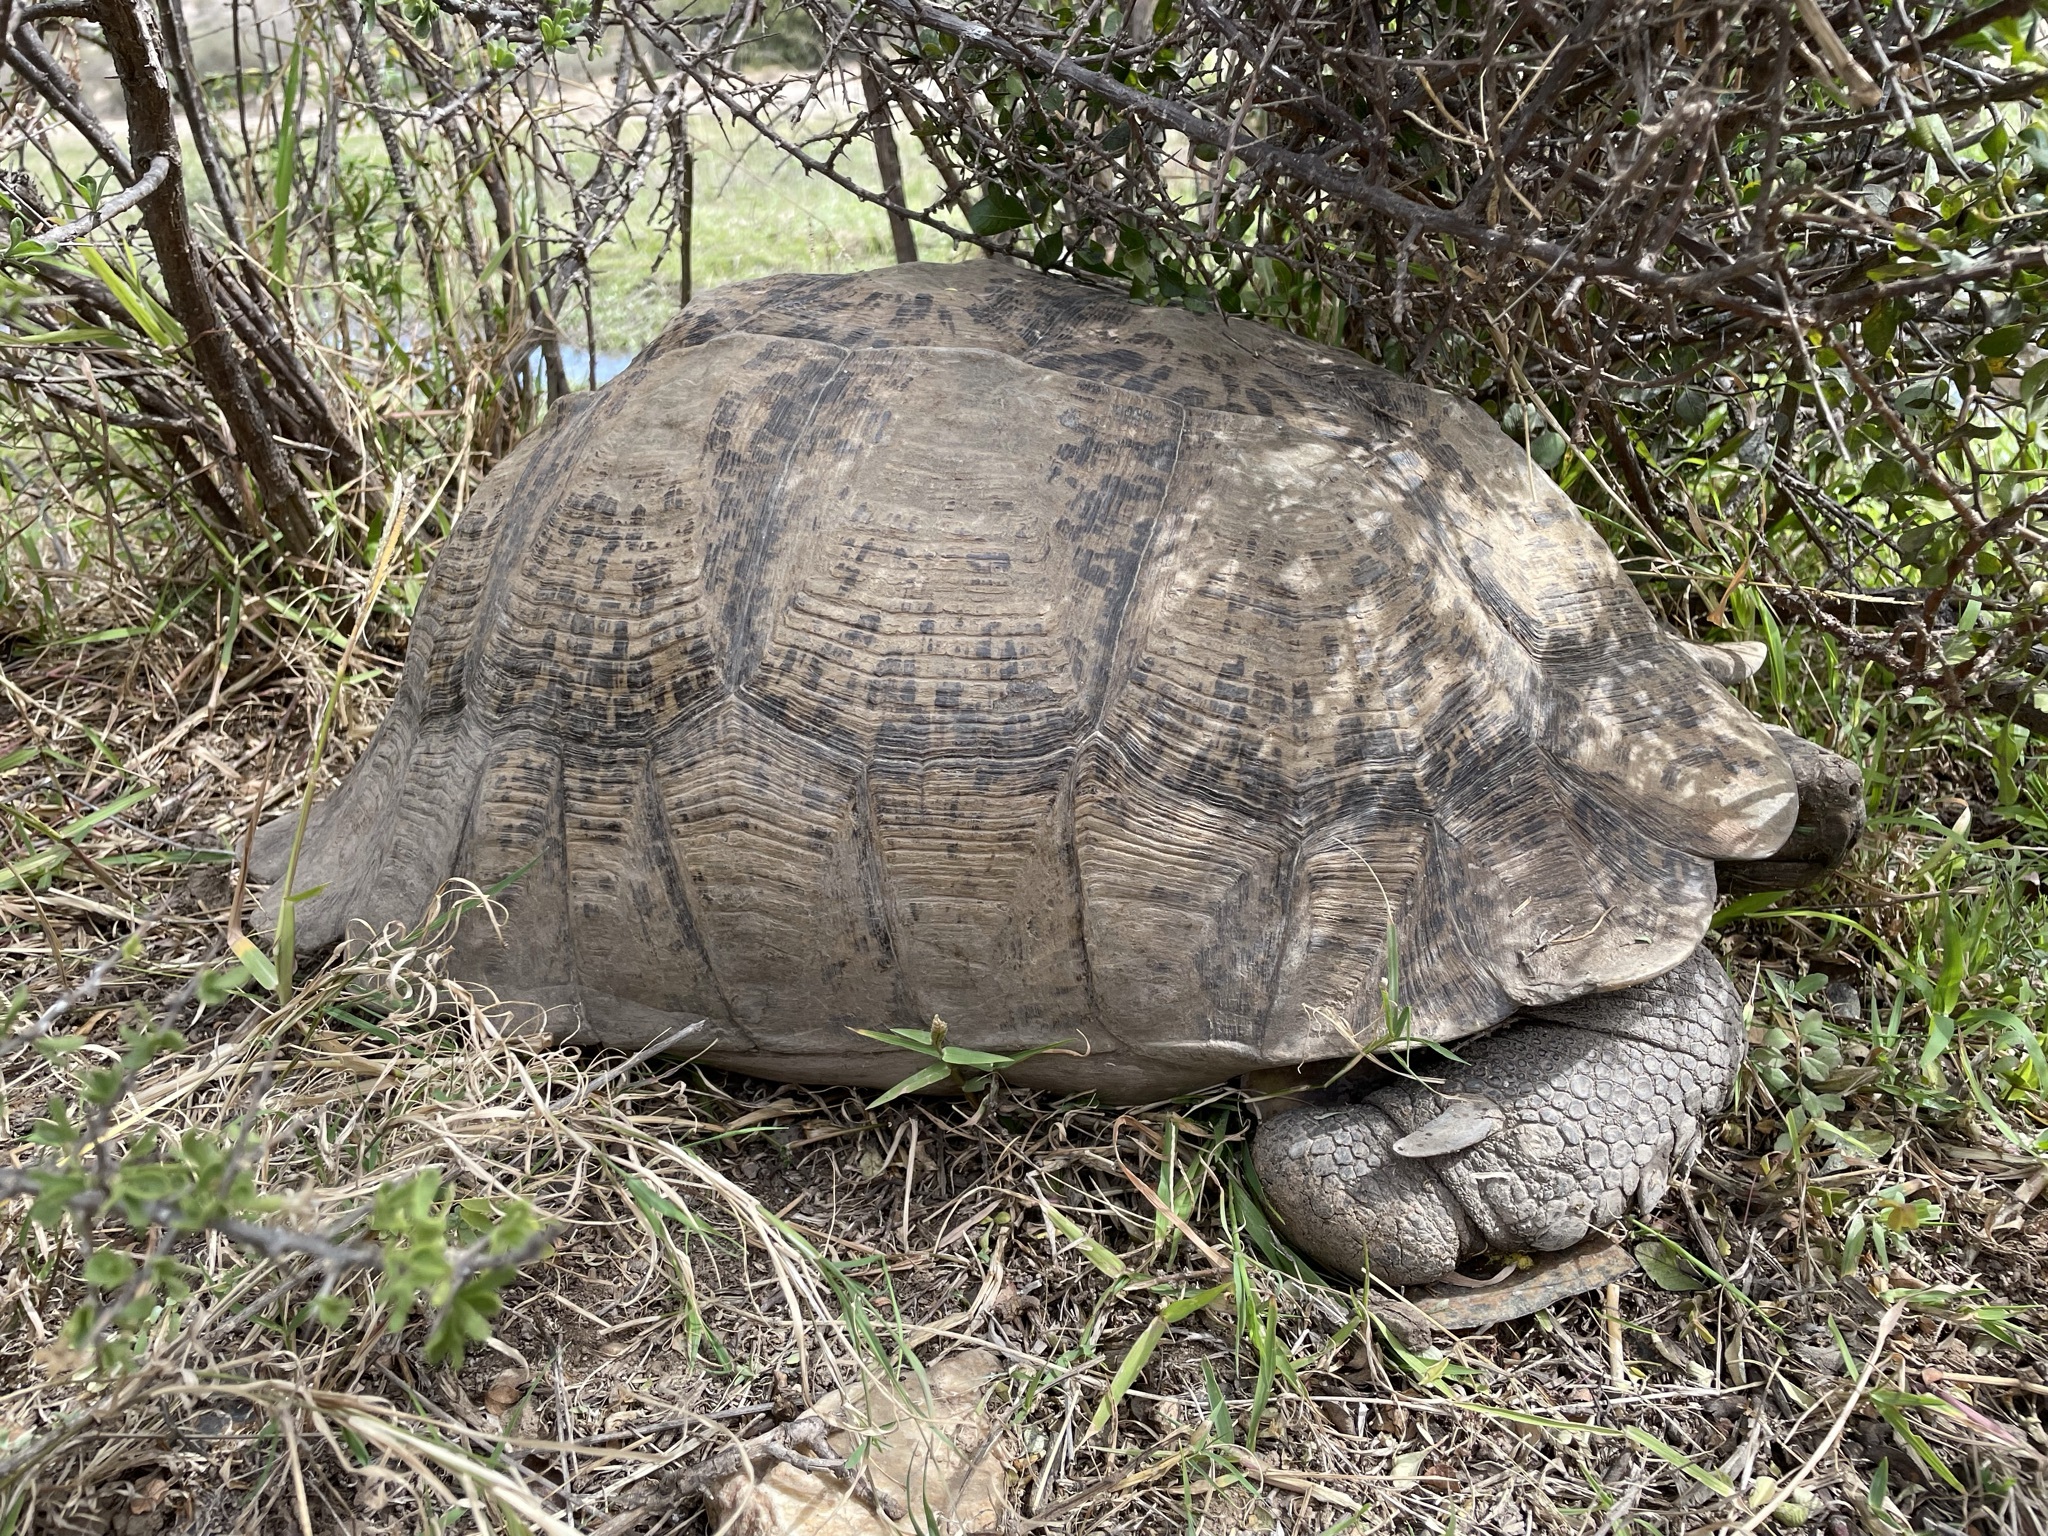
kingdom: Animalia
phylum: Chordata
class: Testudines
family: Testudinidae
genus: Stigmochelys
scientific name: Stigmochelys pardalis
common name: Leopard tortoise
